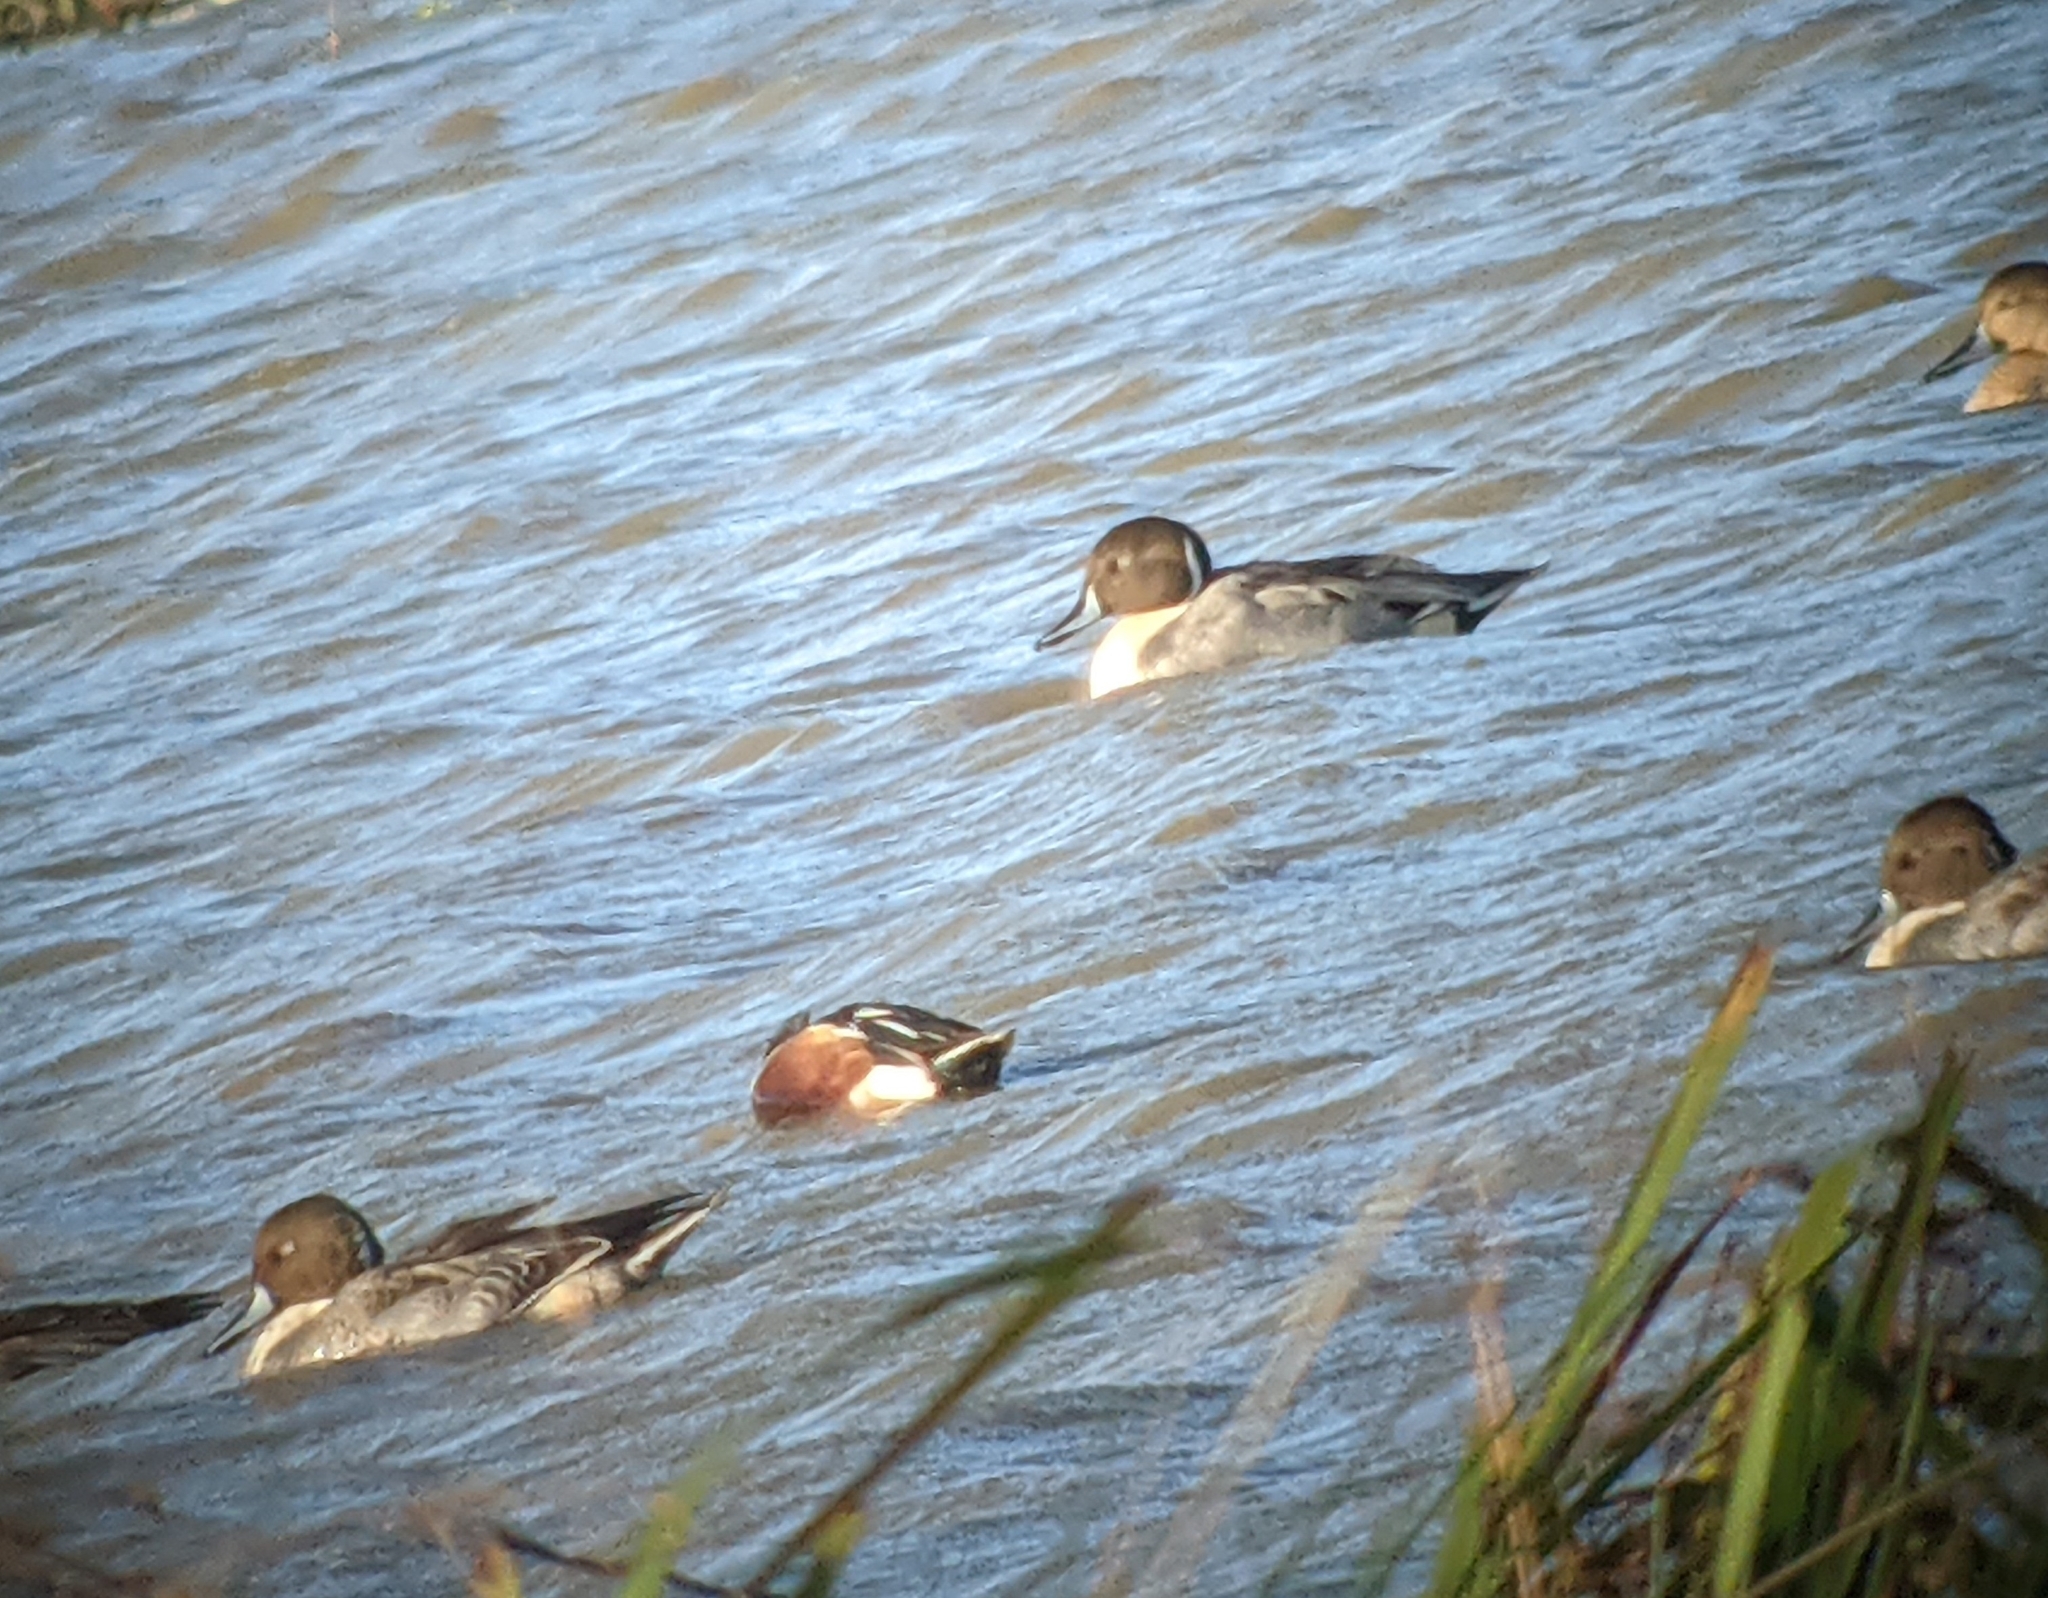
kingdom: Animalia
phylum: Chordata
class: Aves
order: Anseriformes
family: Anatidae
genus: Anas
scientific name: Anas acuta
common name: Northern pintail
